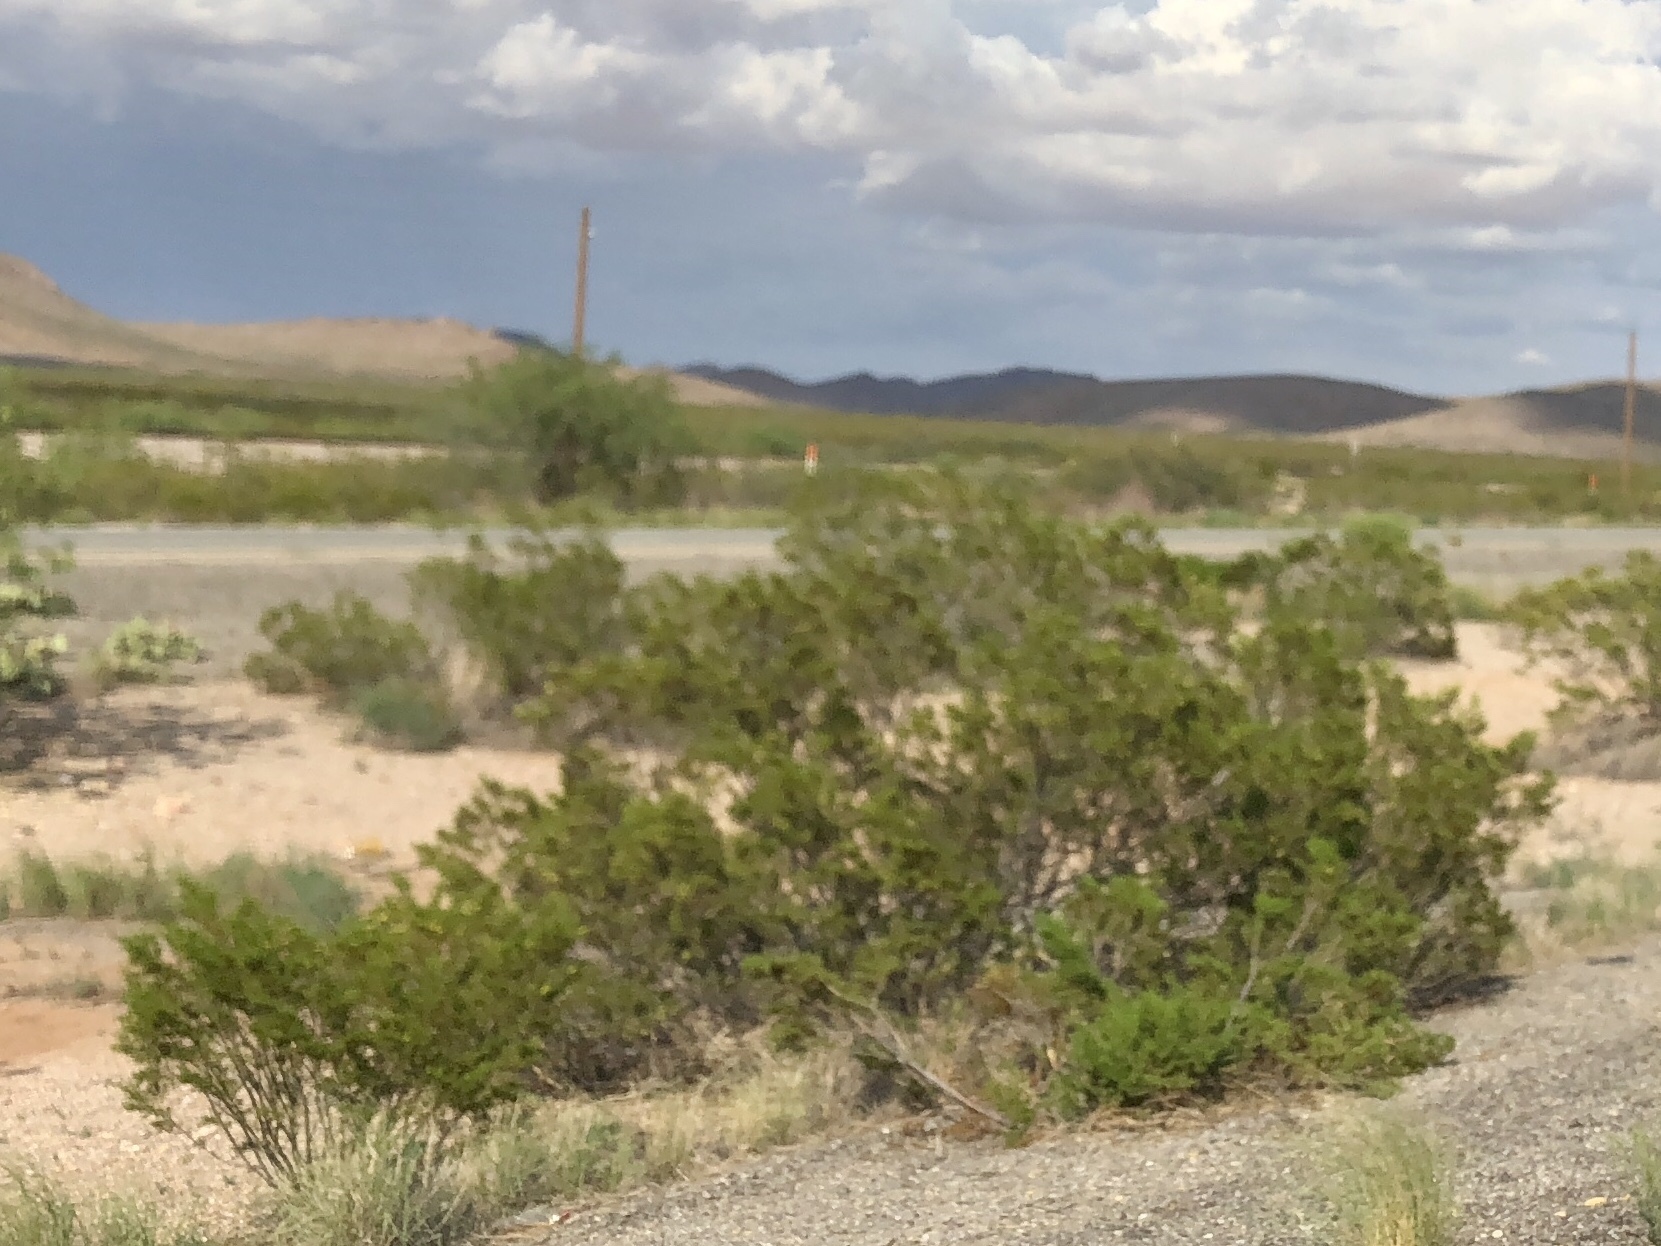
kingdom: Plantae
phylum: Tracheophyta
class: Magnoliopsida
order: Zygophyllales
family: Zygophyllaceae
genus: Larrea
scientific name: Larrea tridentata
